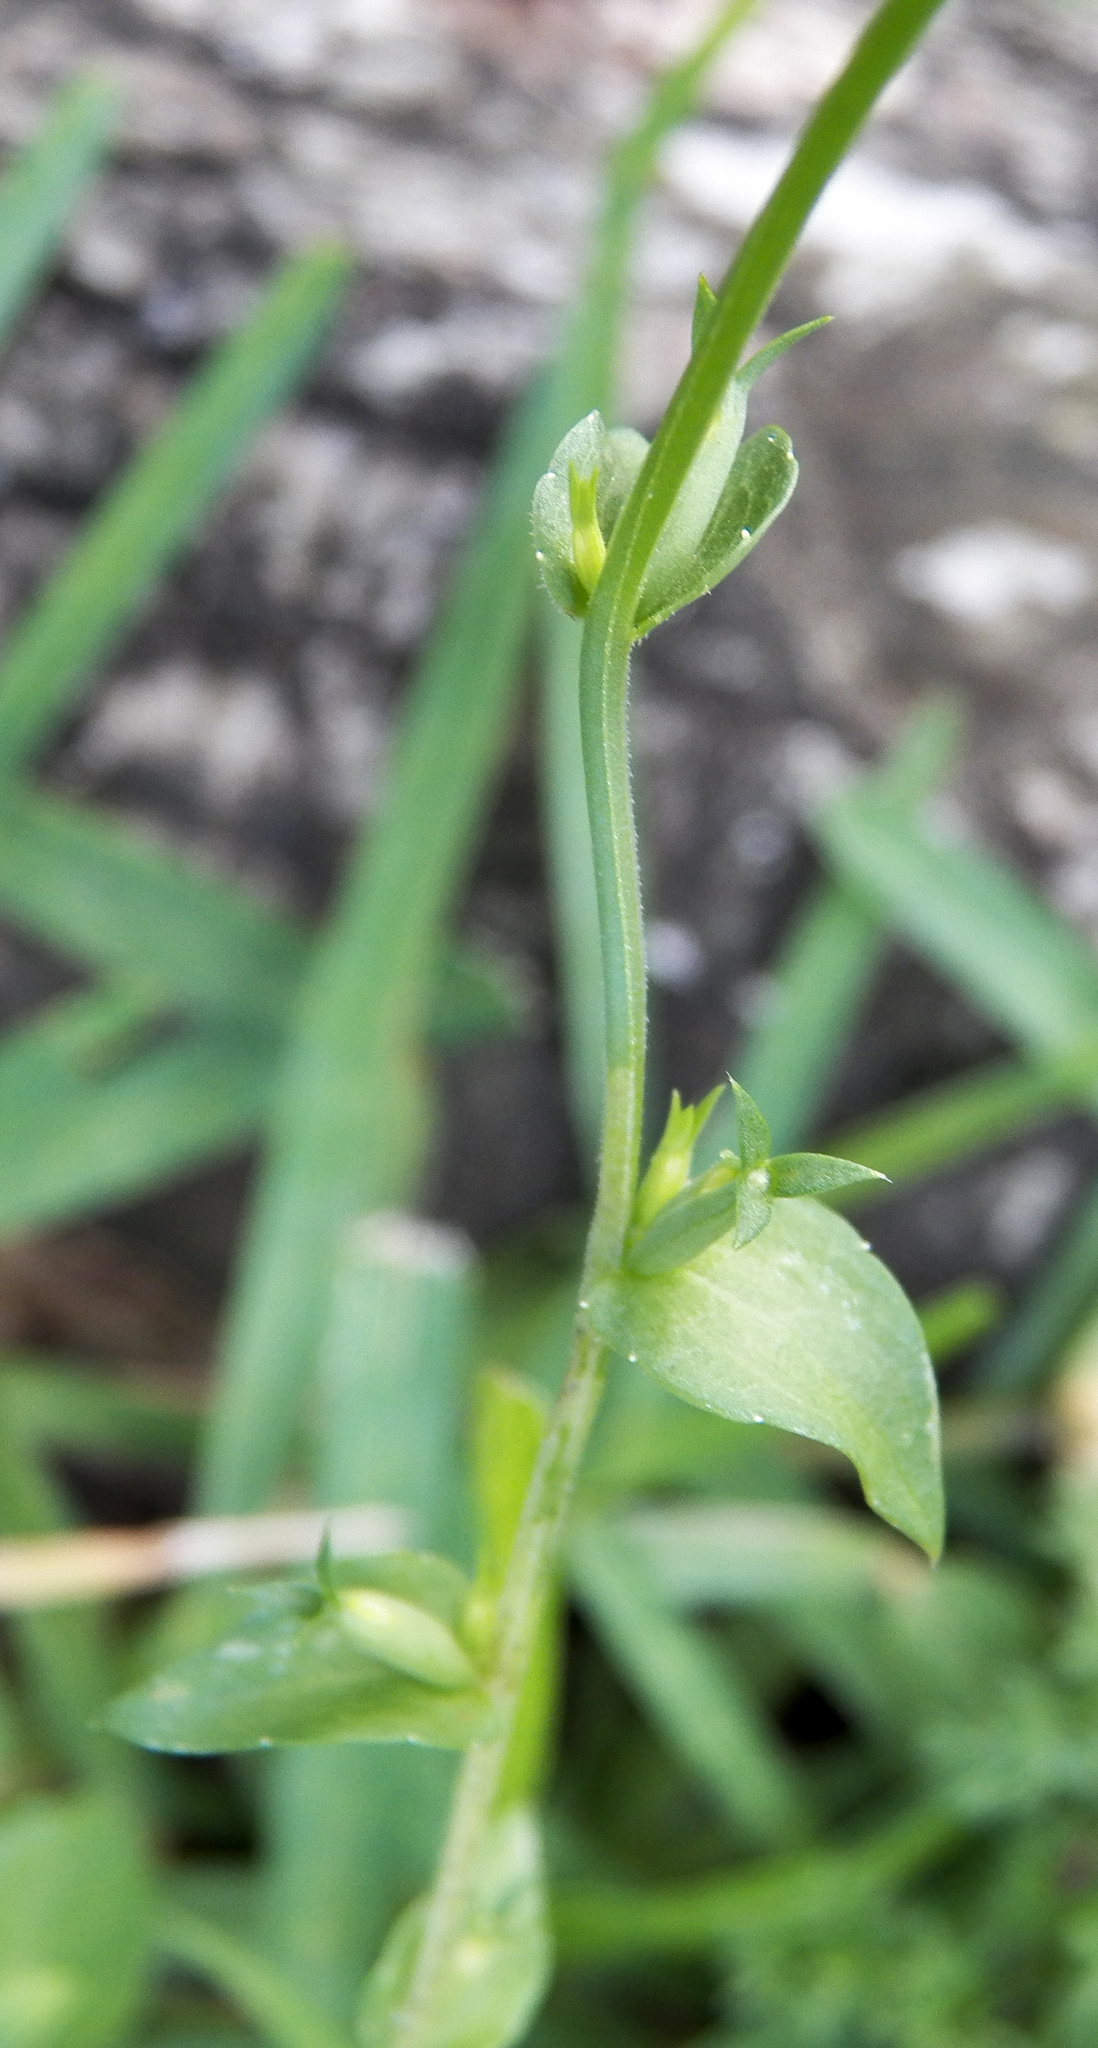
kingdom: Plantae
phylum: Tracheophyta
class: Magnoliopsida
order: Asterales
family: Campanulaceae
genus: Triodanis
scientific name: Triodanis biflora
